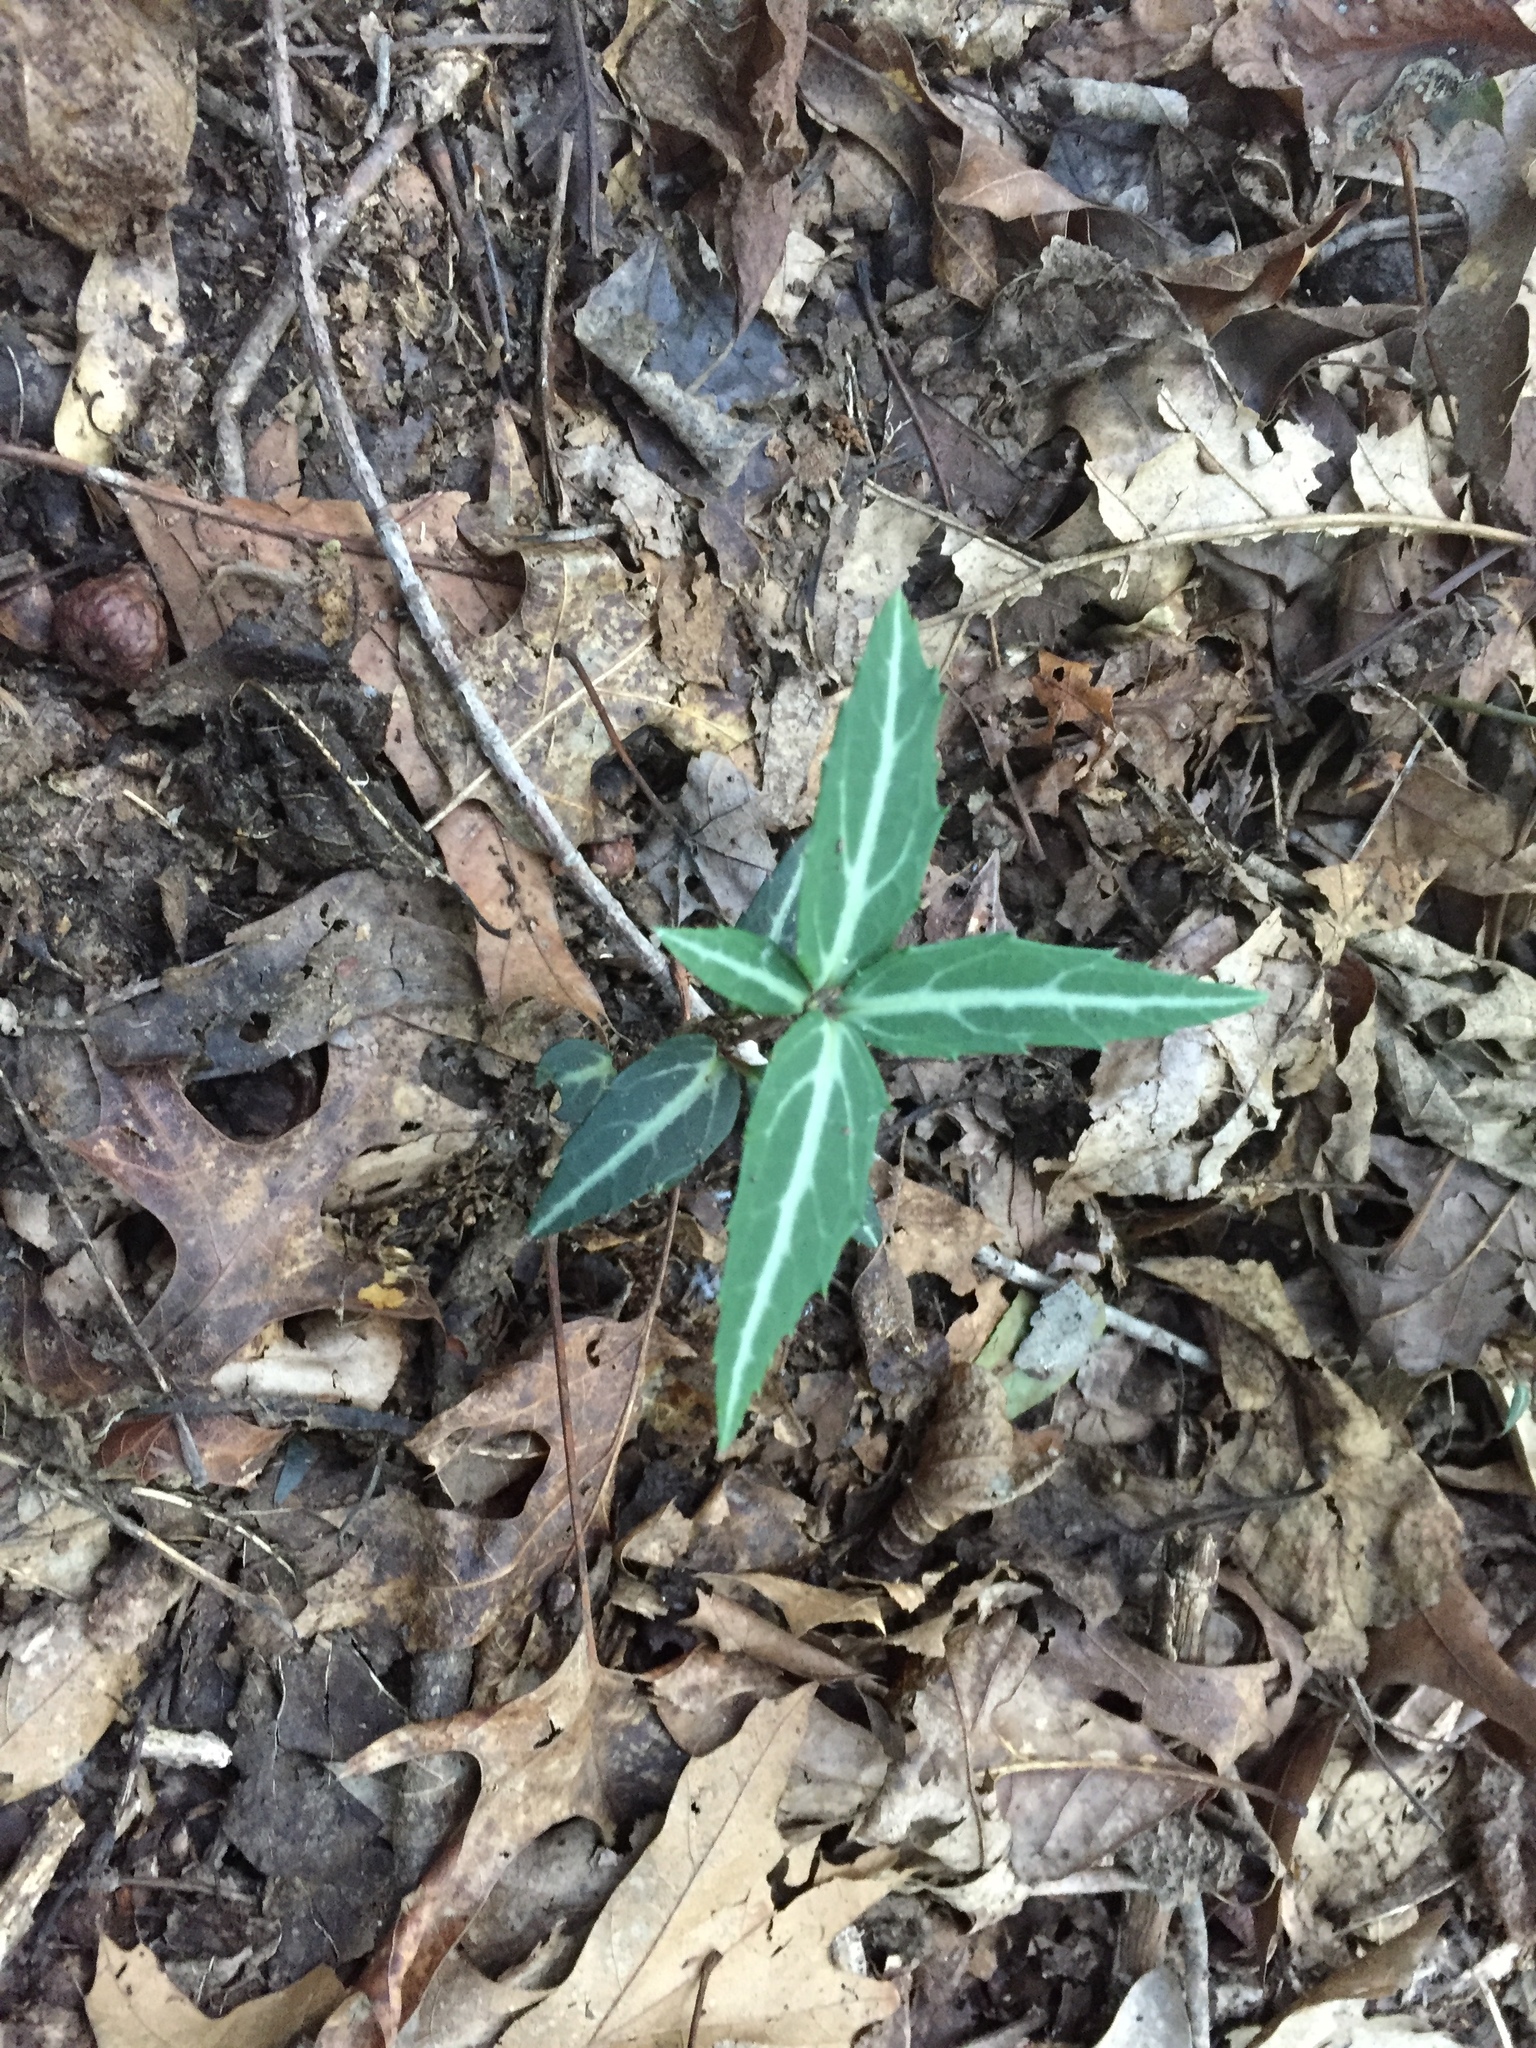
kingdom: Plantae
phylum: Tracheophyta
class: Magnoliopsida
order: Ericales
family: Ericaceae
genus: Chimaphila
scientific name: Chimaphila maculata
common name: Spotted pipsissewa
